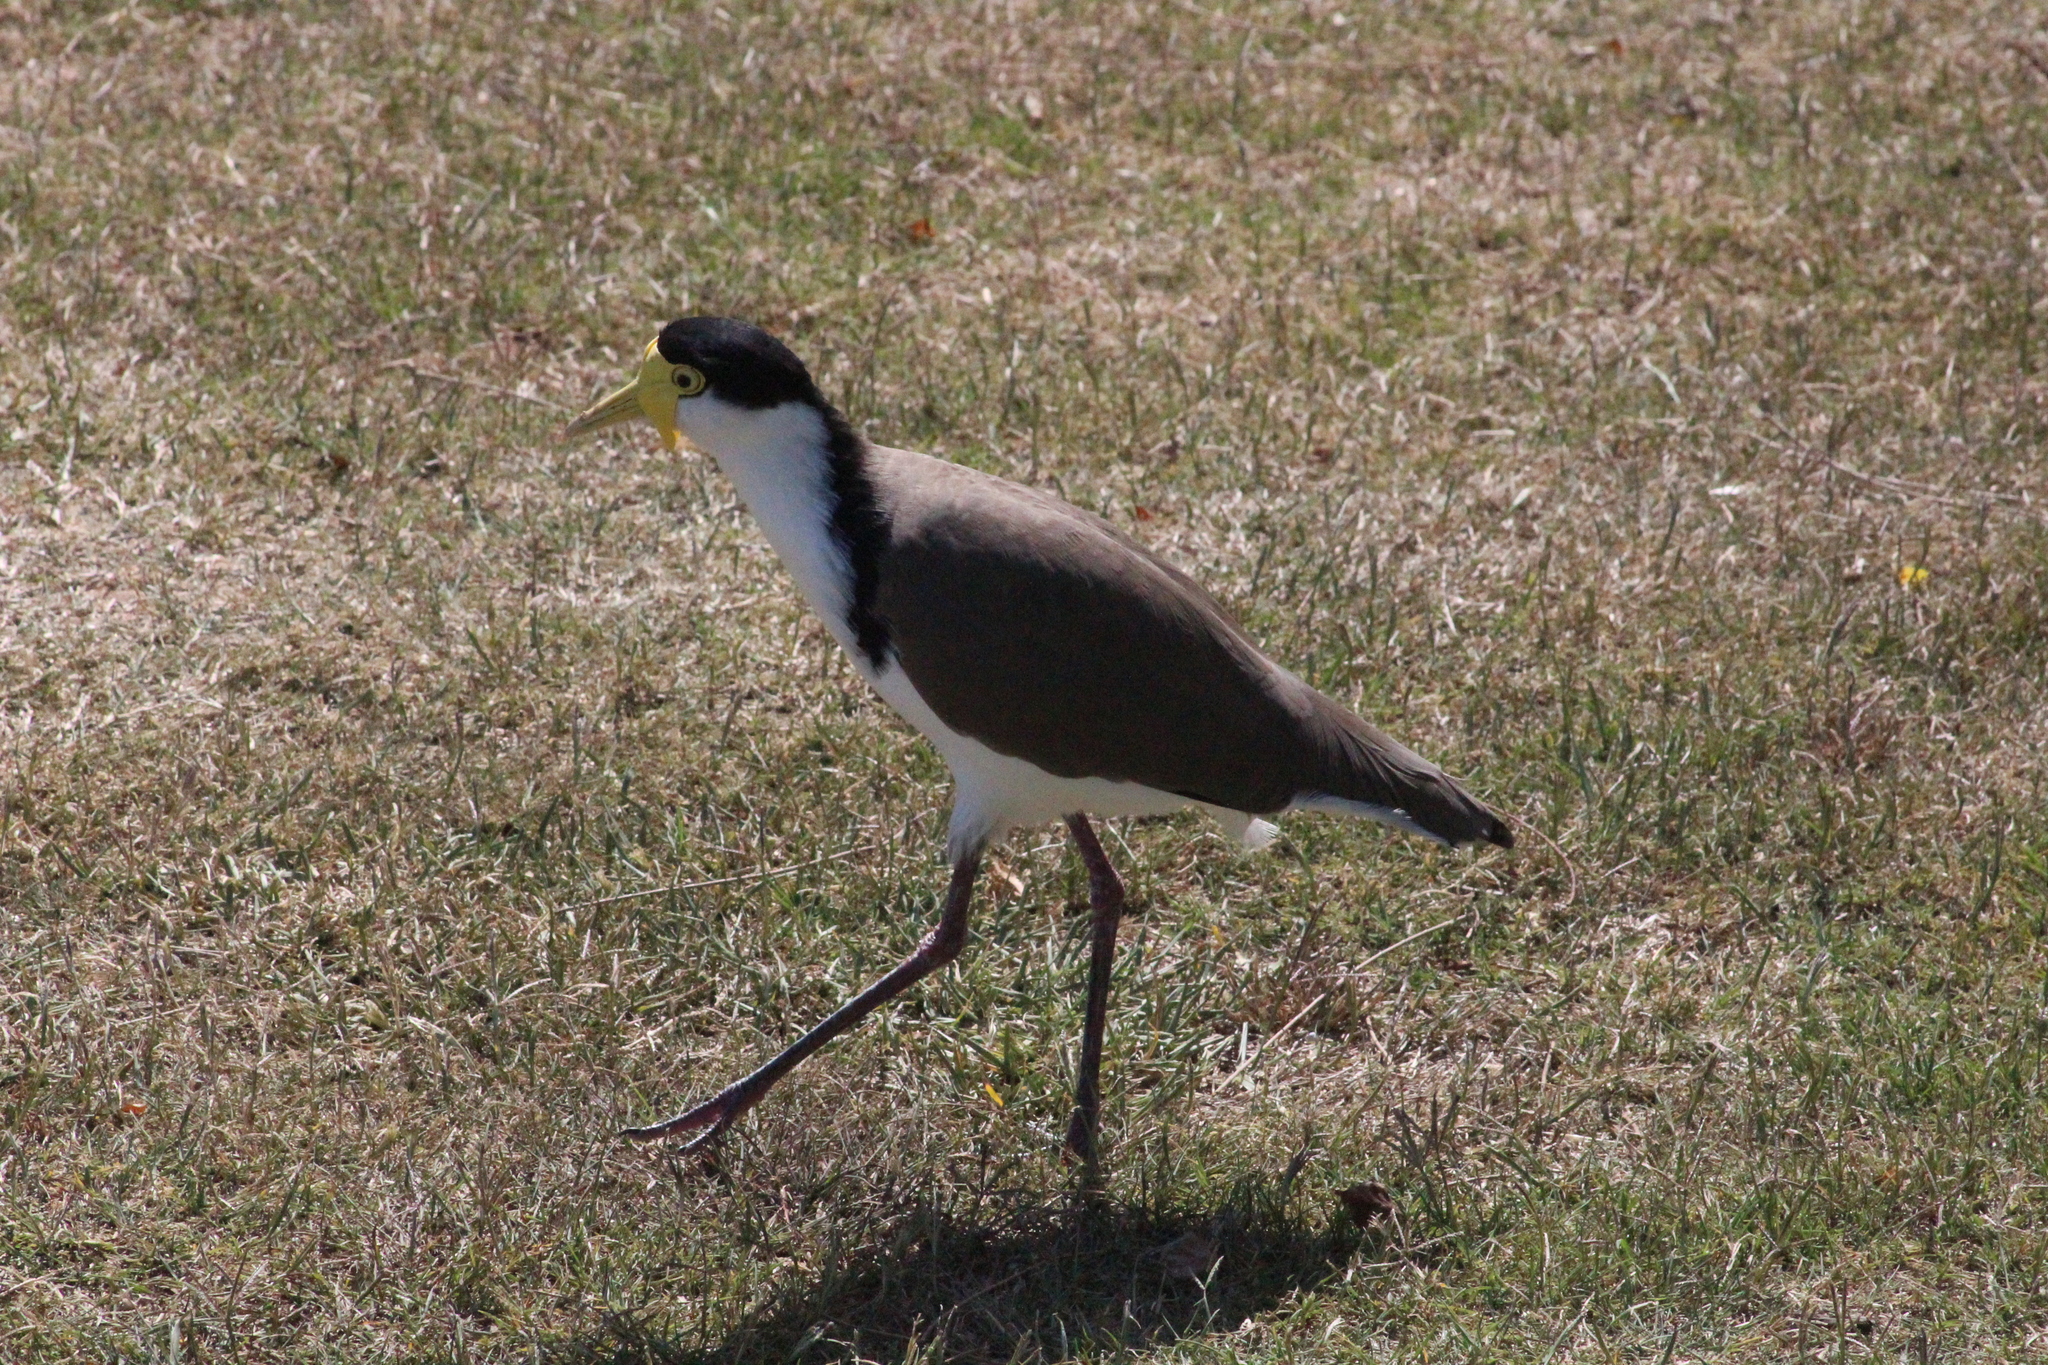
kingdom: Animalia
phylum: Chordata
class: Aves
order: Charadriiformes
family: Charadriidae
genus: Vanellus
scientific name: Vanellus miles
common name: Masked lapwing
